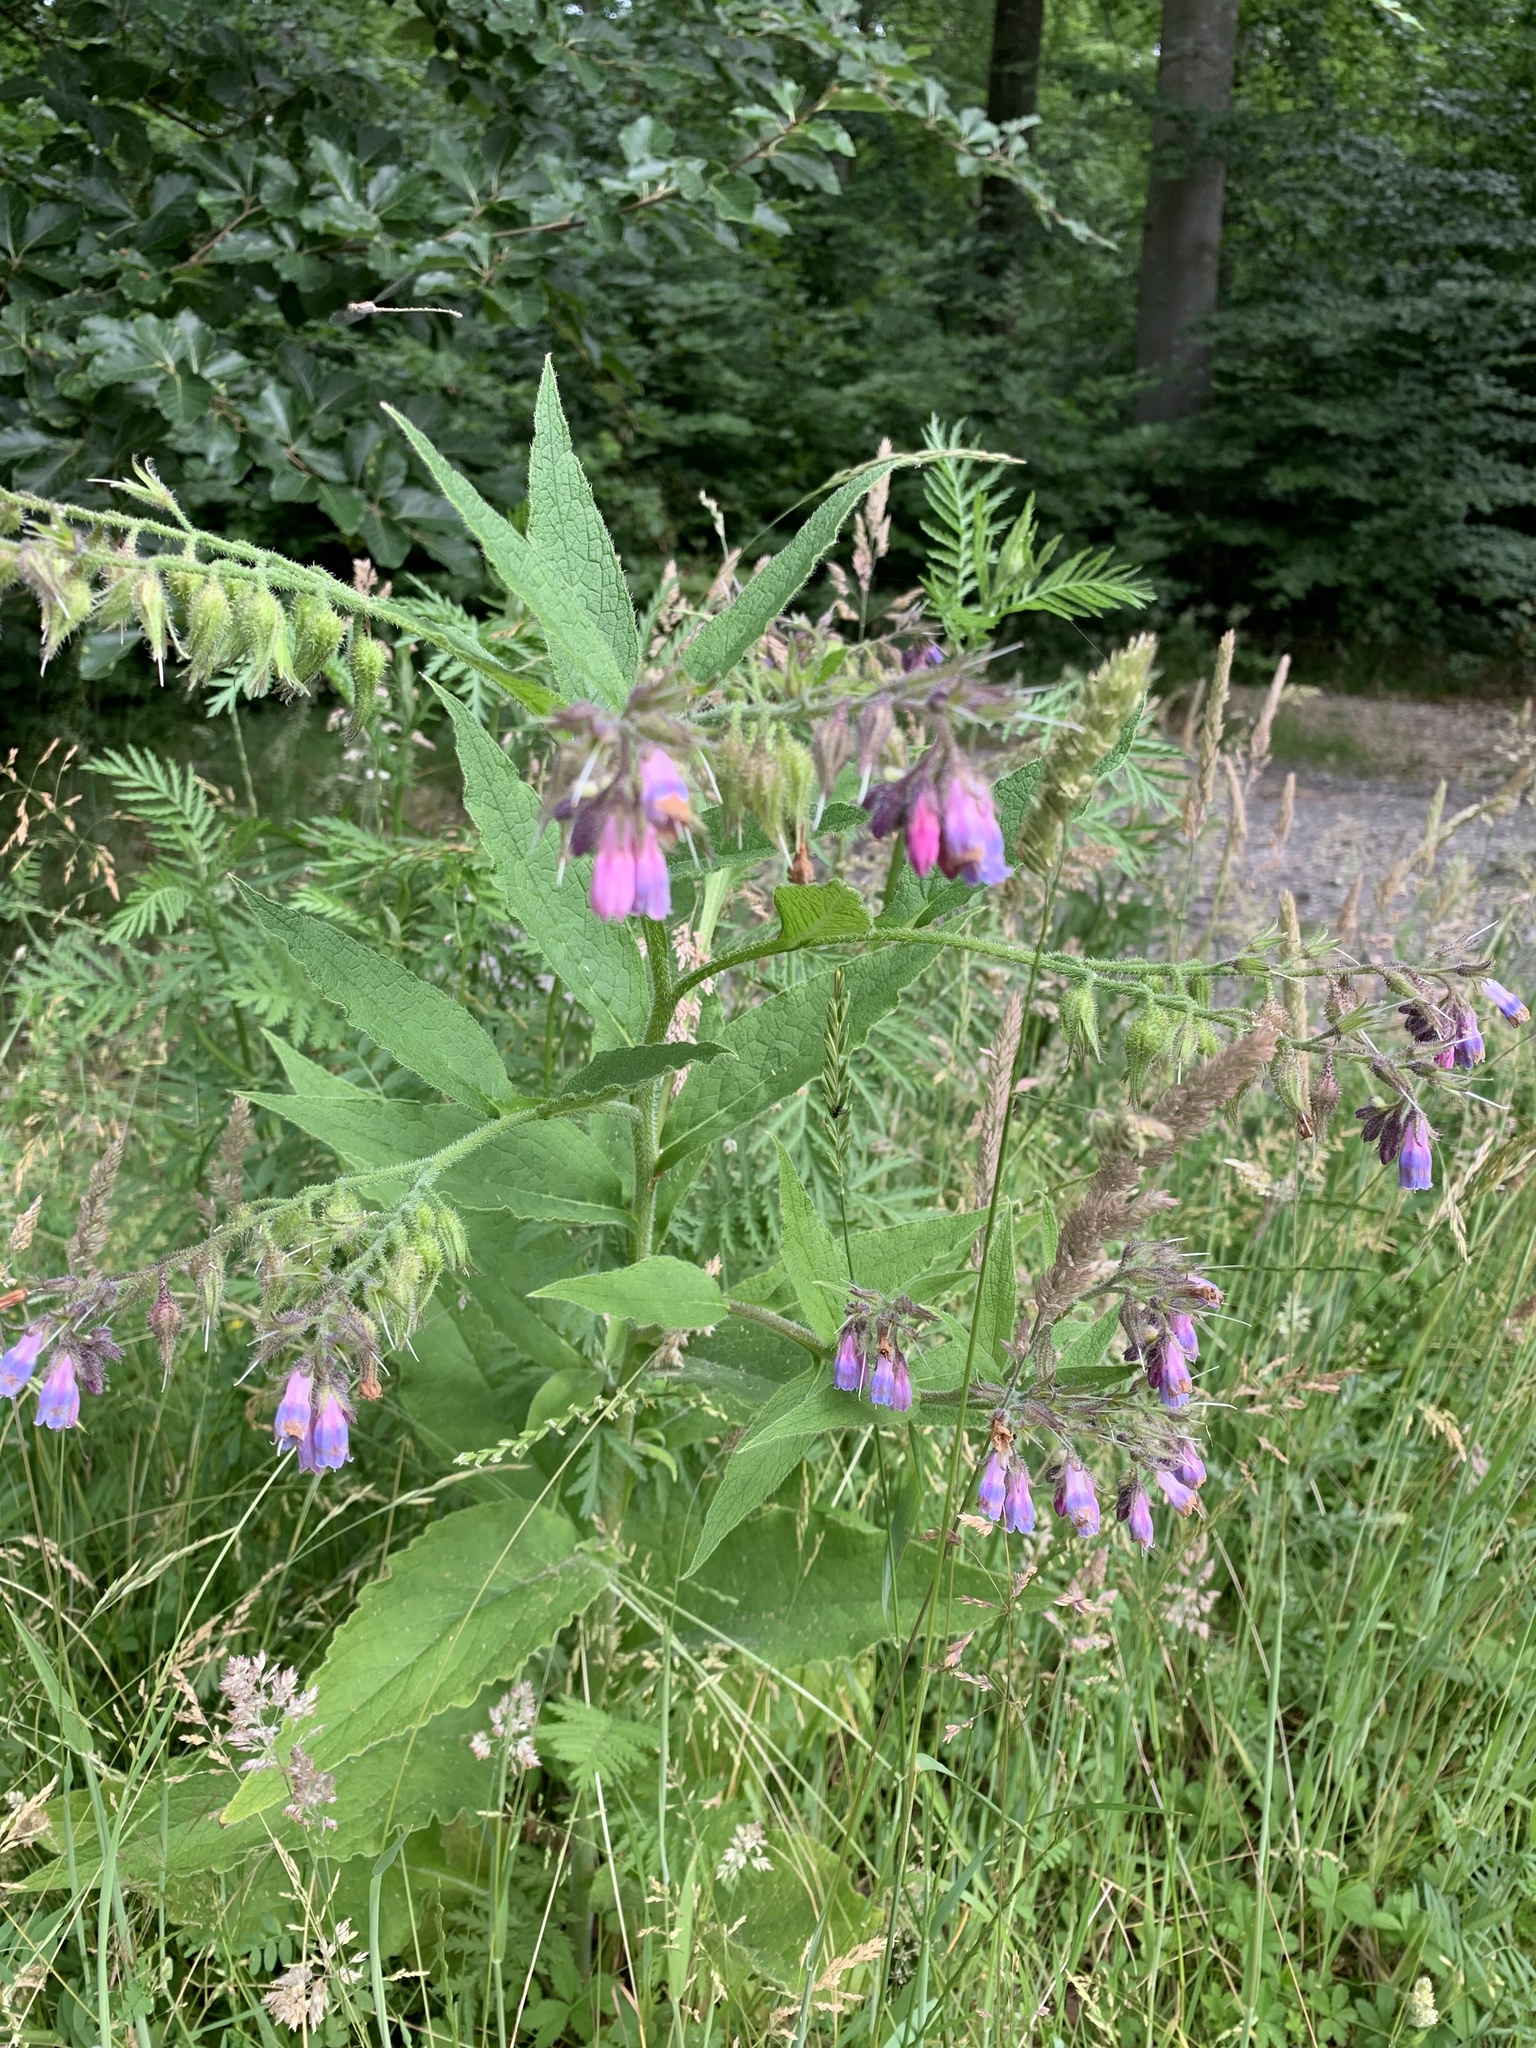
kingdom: Plantae
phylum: Tracheophyta
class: Magnoliopsida
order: Boraginales
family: Boraginaceae
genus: Symphytum
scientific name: Symphytum uplandicum
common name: Russian comfrey
